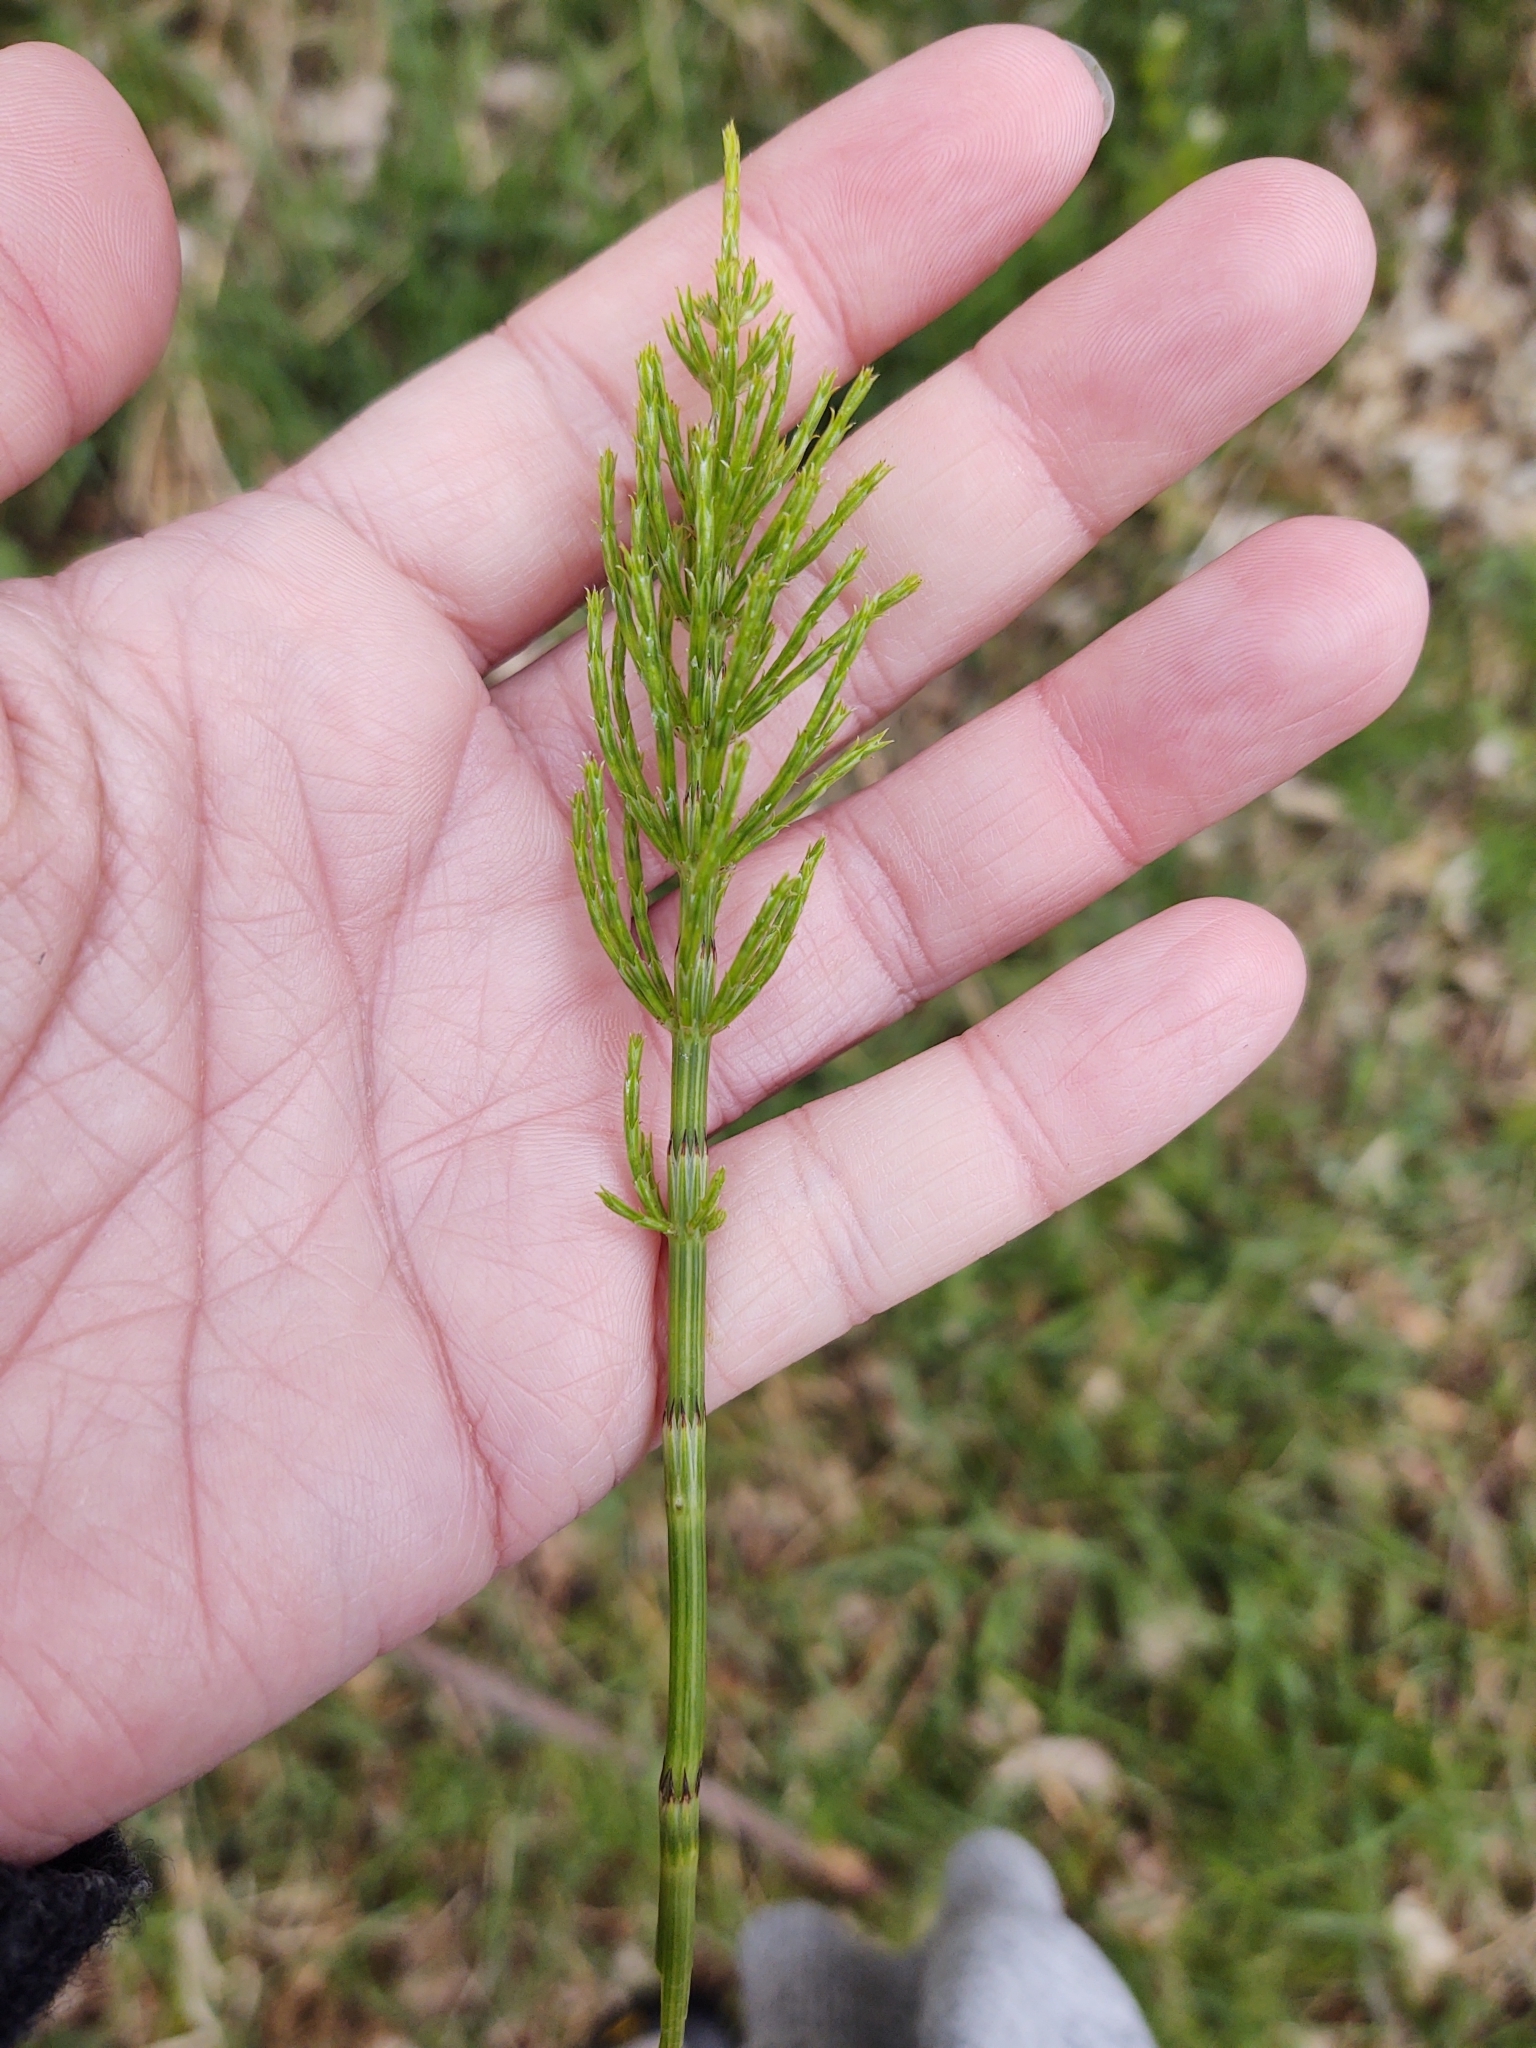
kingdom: Plantae
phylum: Tracheophyta
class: Polypodiopsida
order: Equisetales
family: Equisetaceae
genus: Equisetum
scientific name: Equisetum arvense
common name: Field horsetail
